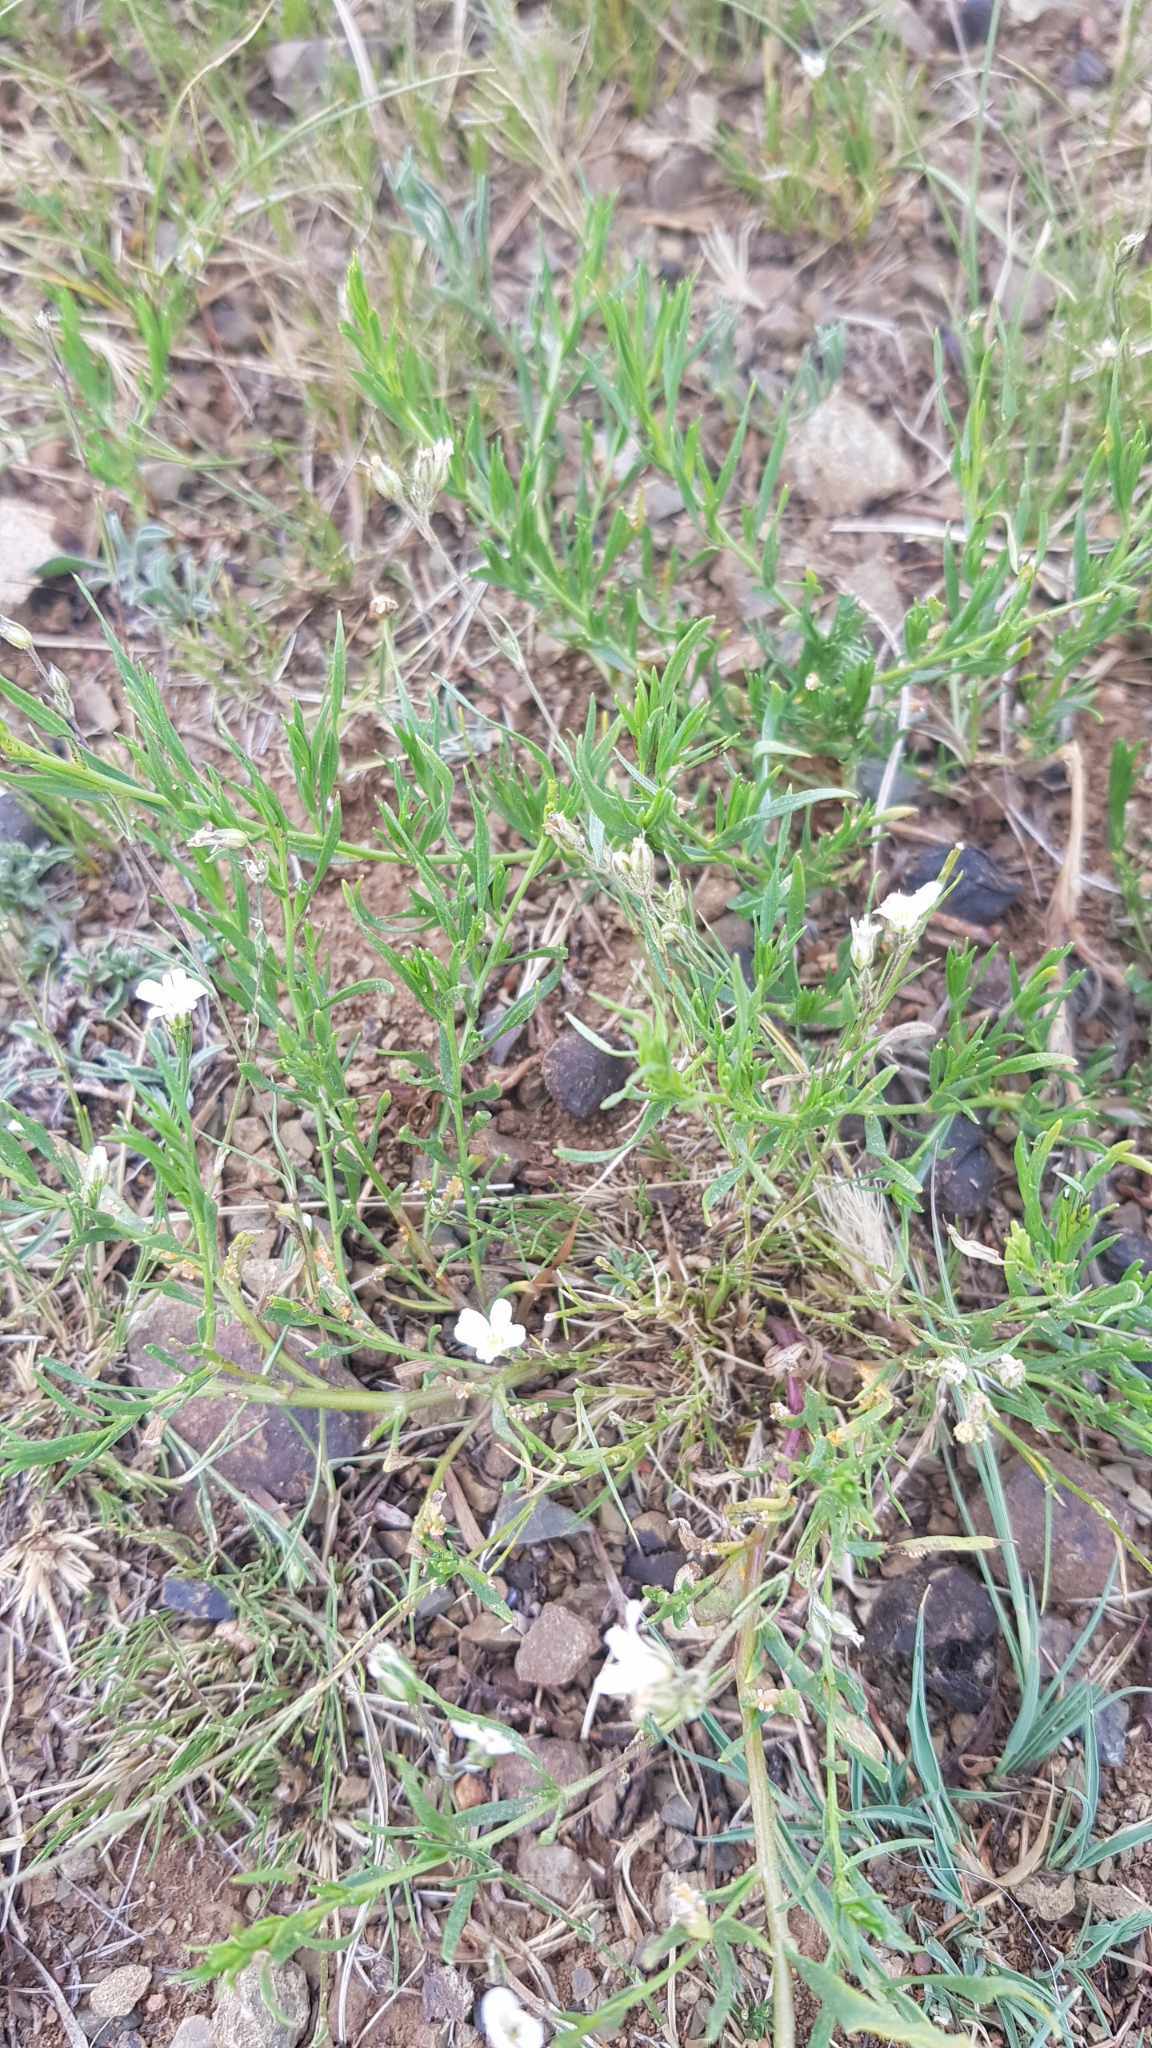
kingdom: Plantae
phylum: Tracheophyta
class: Magnoliopsida
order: Asterales
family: Asteraceae
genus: Artemisia
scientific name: Artemisia dracunculus
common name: Tarragon
